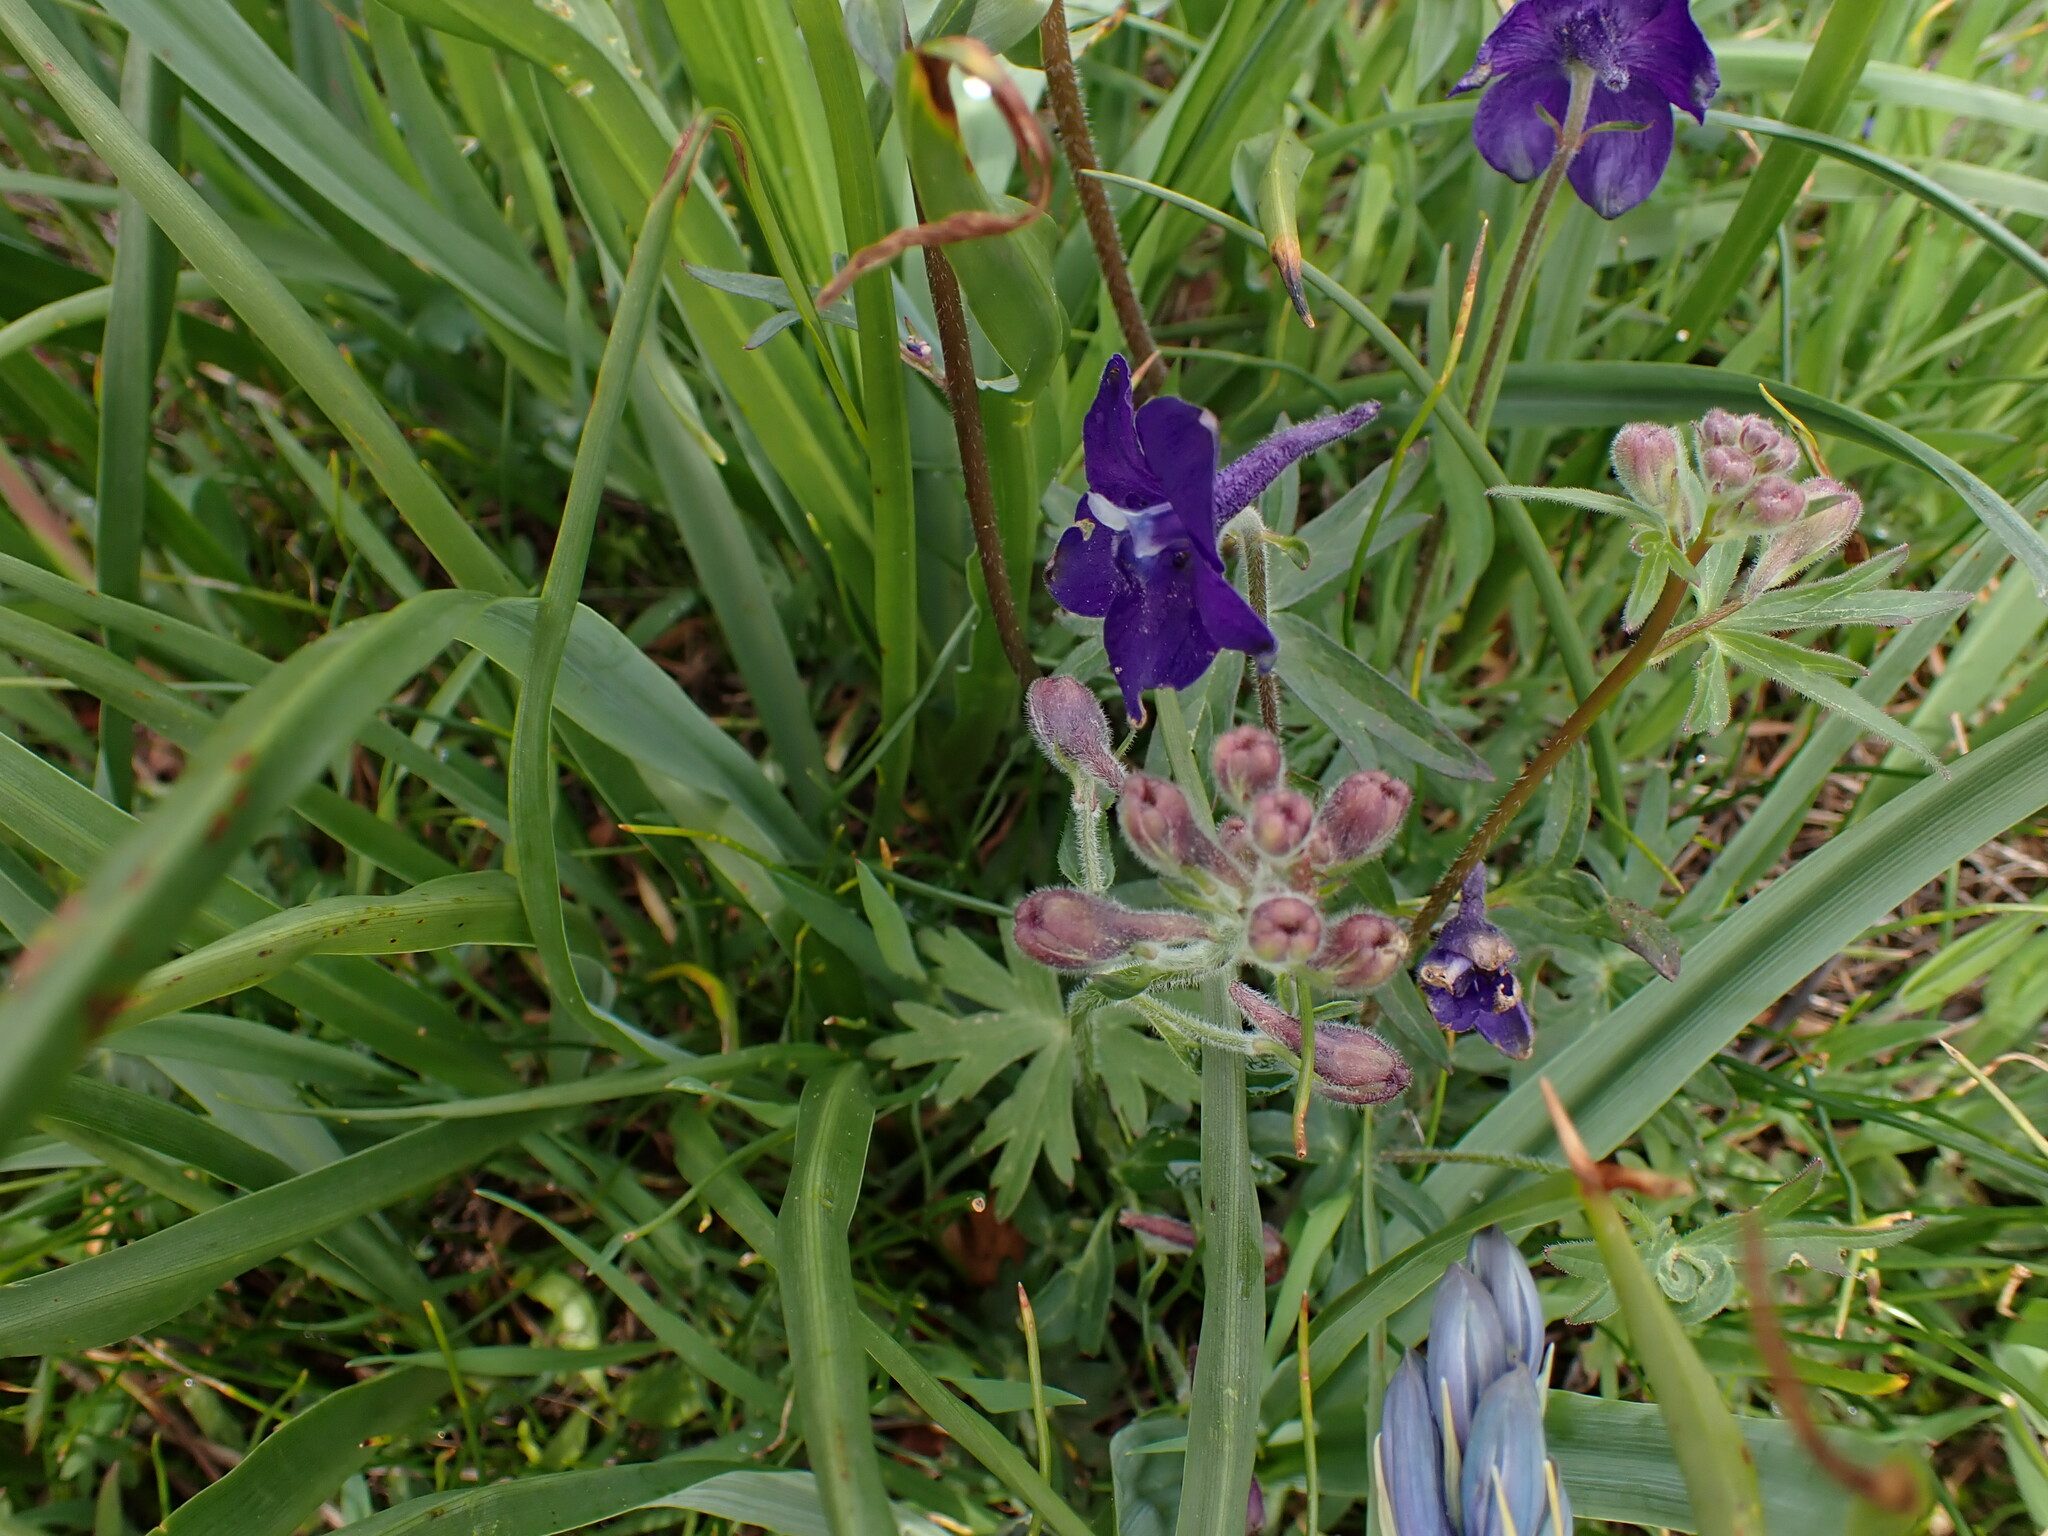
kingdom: Plantae
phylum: Tracheophyta
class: Magnoliopsida
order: Ranunculales
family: Ranunculaceae
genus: Delphinium
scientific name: Delphinium menziesii
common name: Menzies's larkspur
